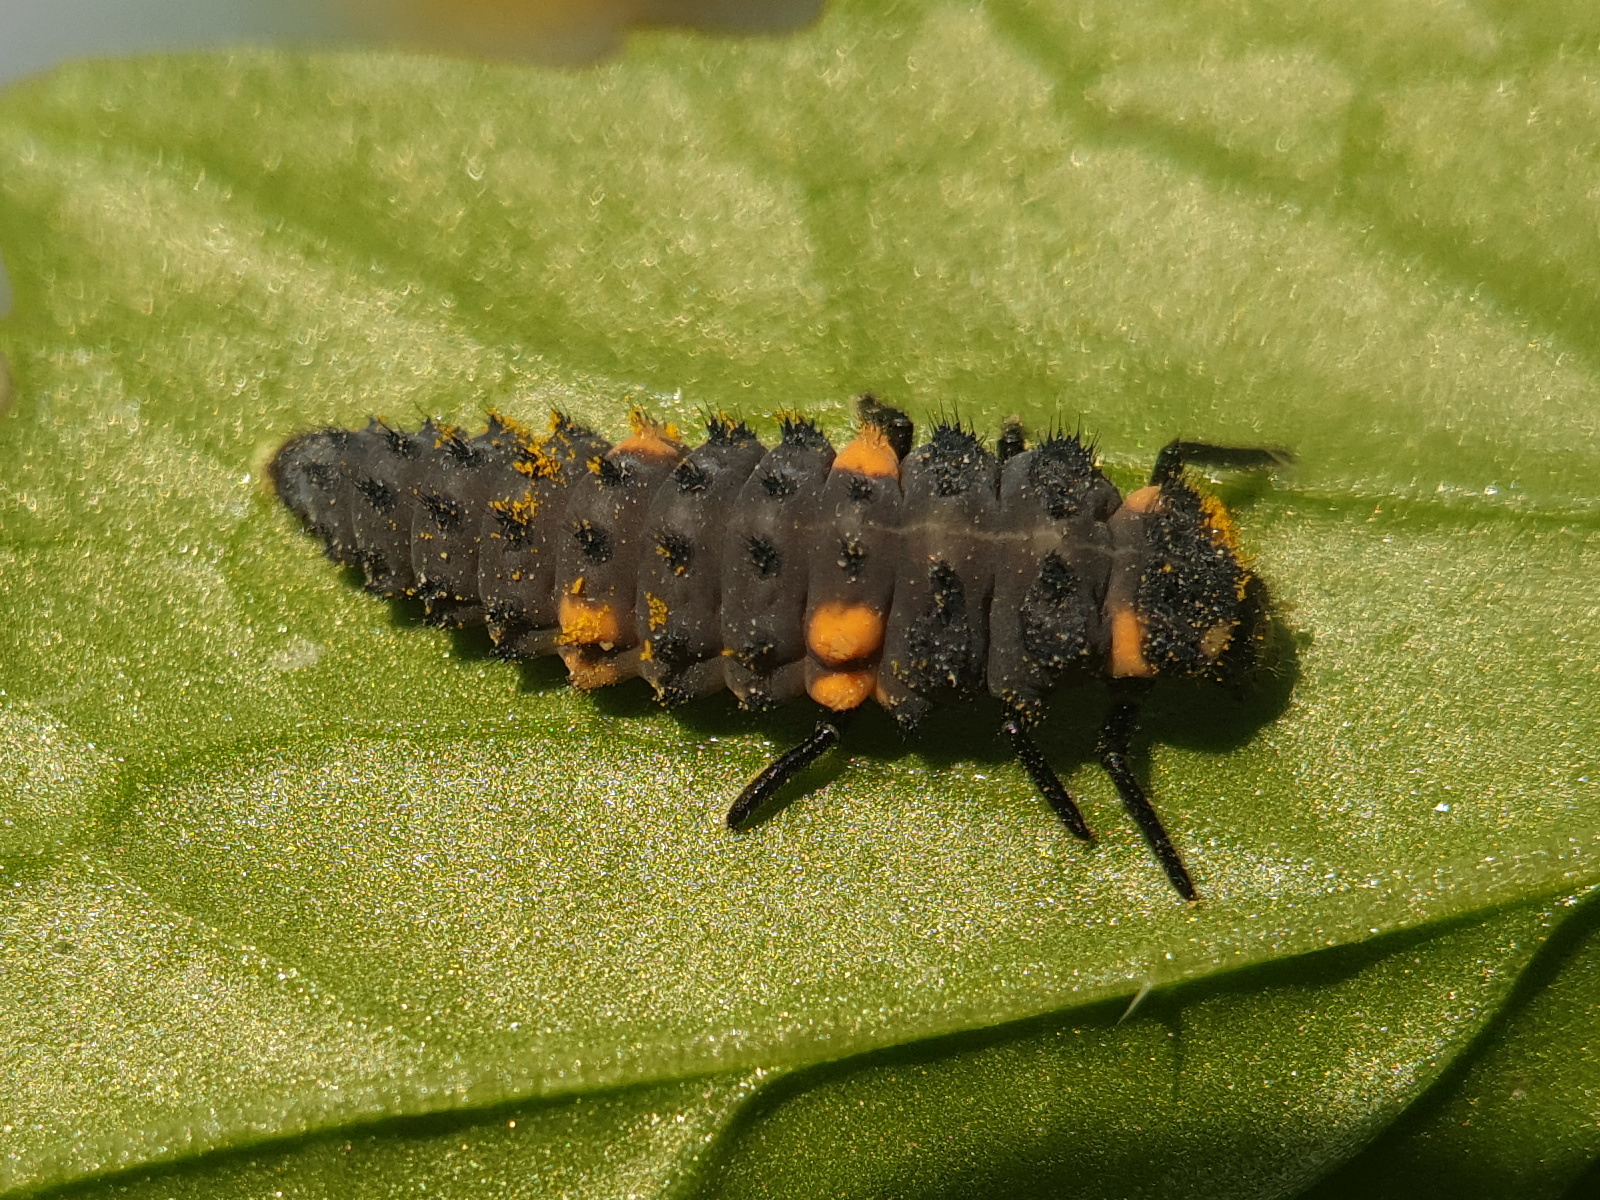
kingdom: Animalia
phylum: Arthropoda
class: Insecta
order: Coleoptera
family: Coccinellidae
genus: Coccinella
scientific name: Coccinella septempunctata
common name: Sevenspotted lady beetle
